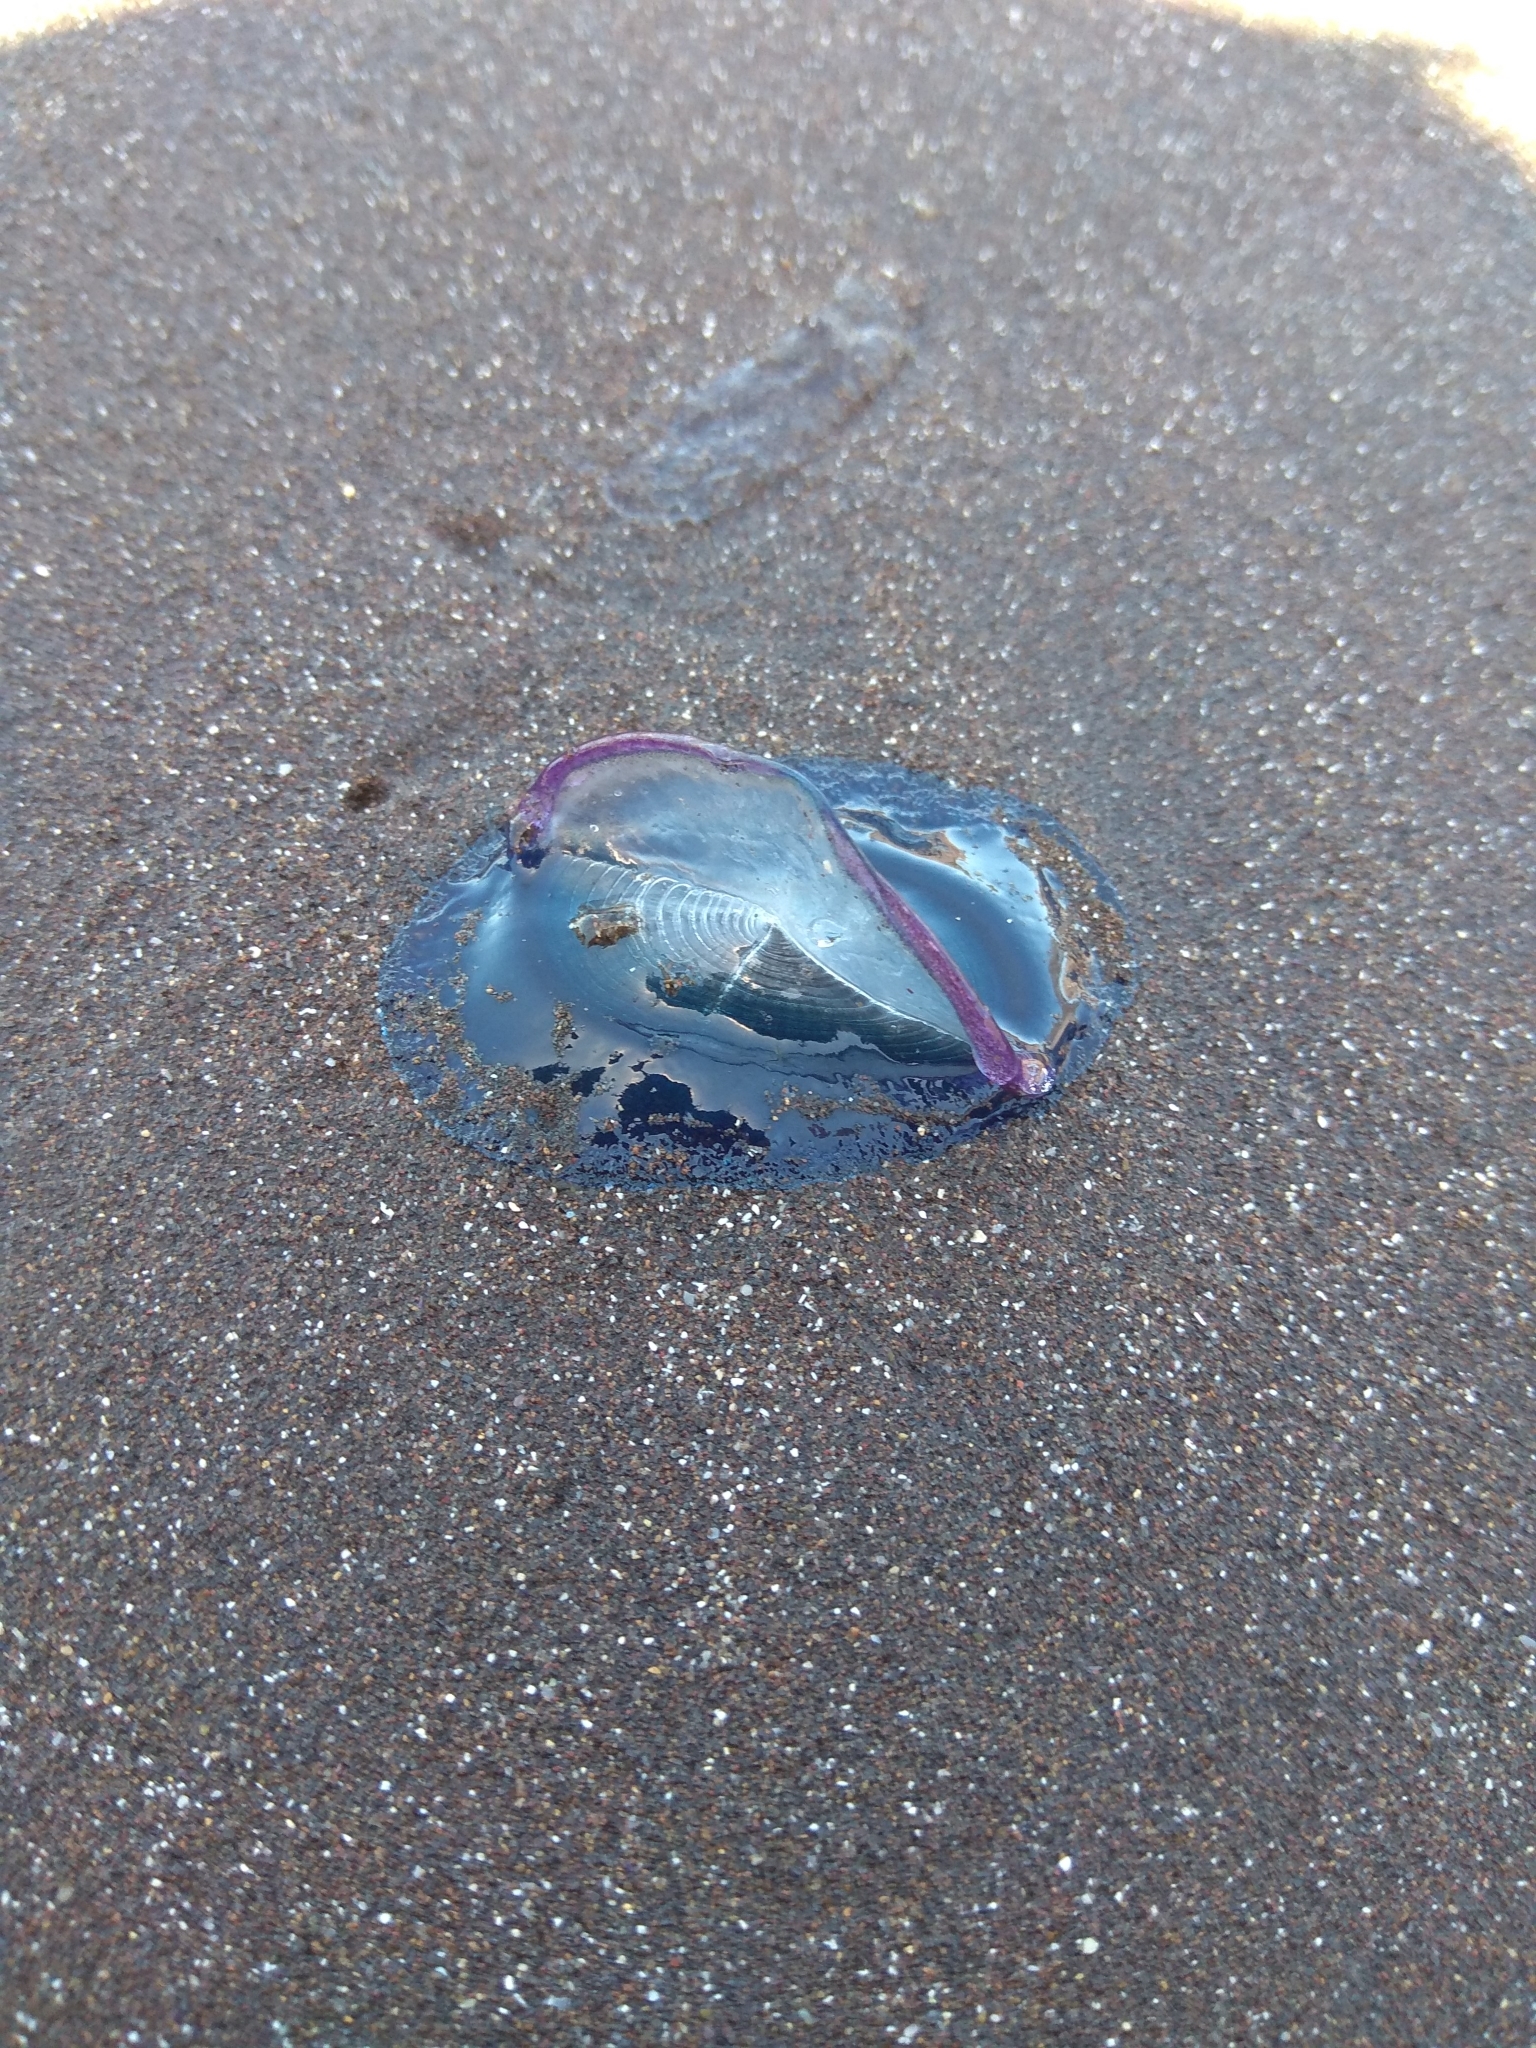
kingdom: Animalia
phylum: Cnidaria
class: Hydrozoa
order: Anthoathecata
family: Porpitidae
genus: Velella
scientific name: Velella velella
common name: By-the-wind-sailor
